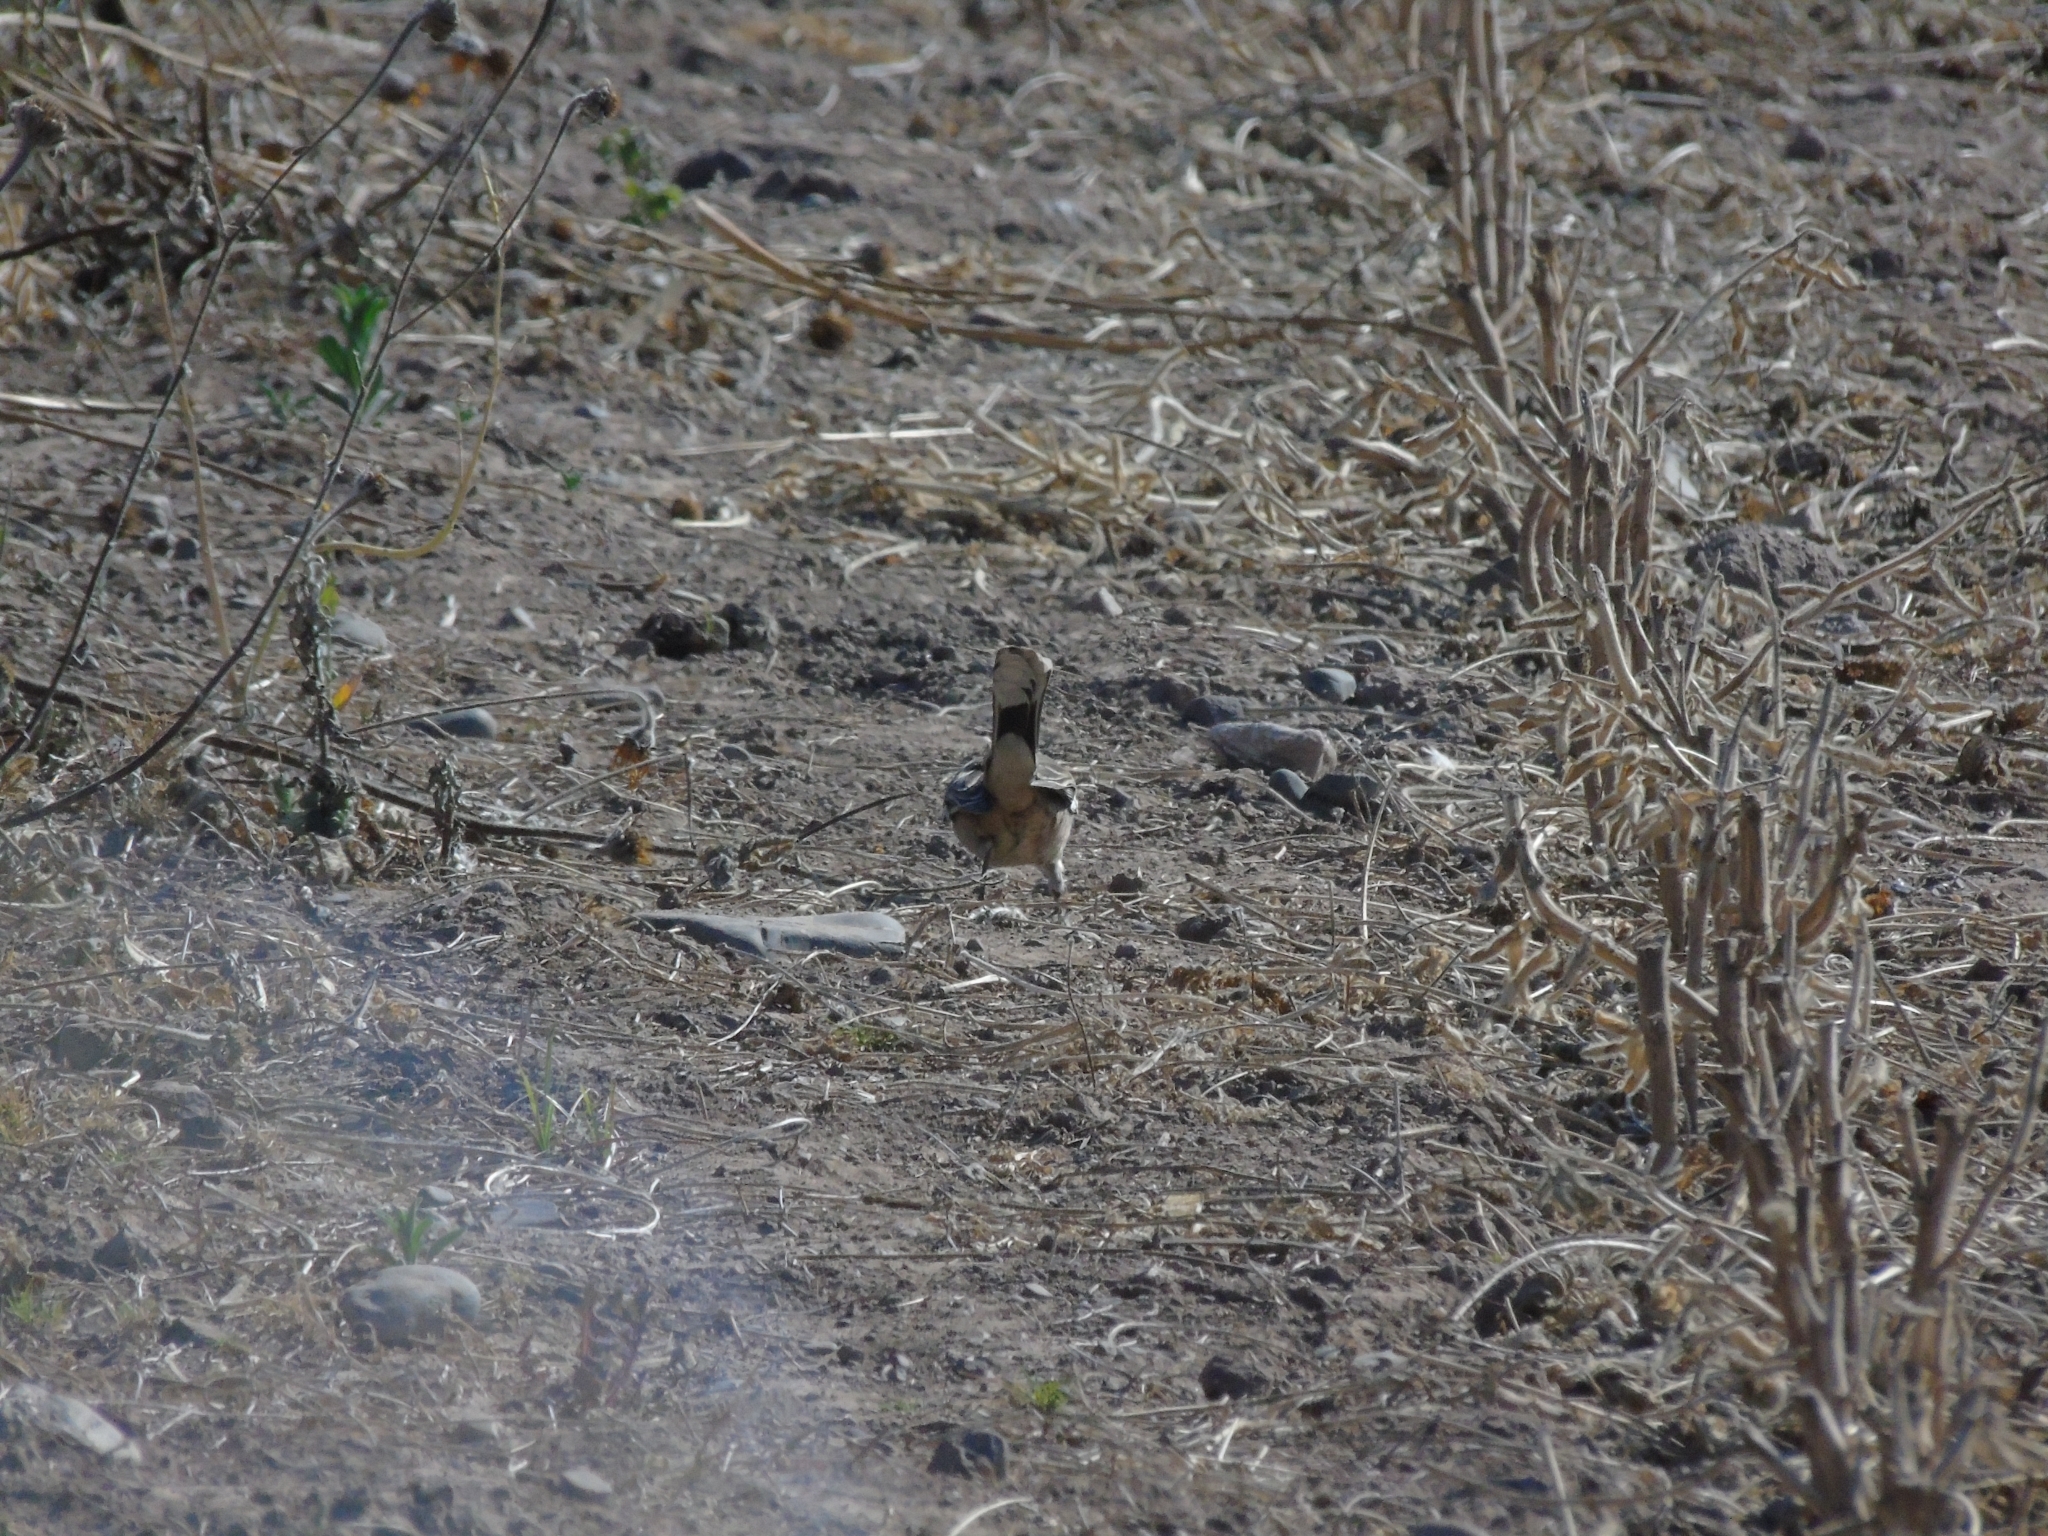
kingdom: Animalia
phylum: Chordata
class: Aves
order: Passeriformes
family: Mimidae
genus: Mimus
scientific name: Mimus patagonicus
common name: Patagonian mockingbird
